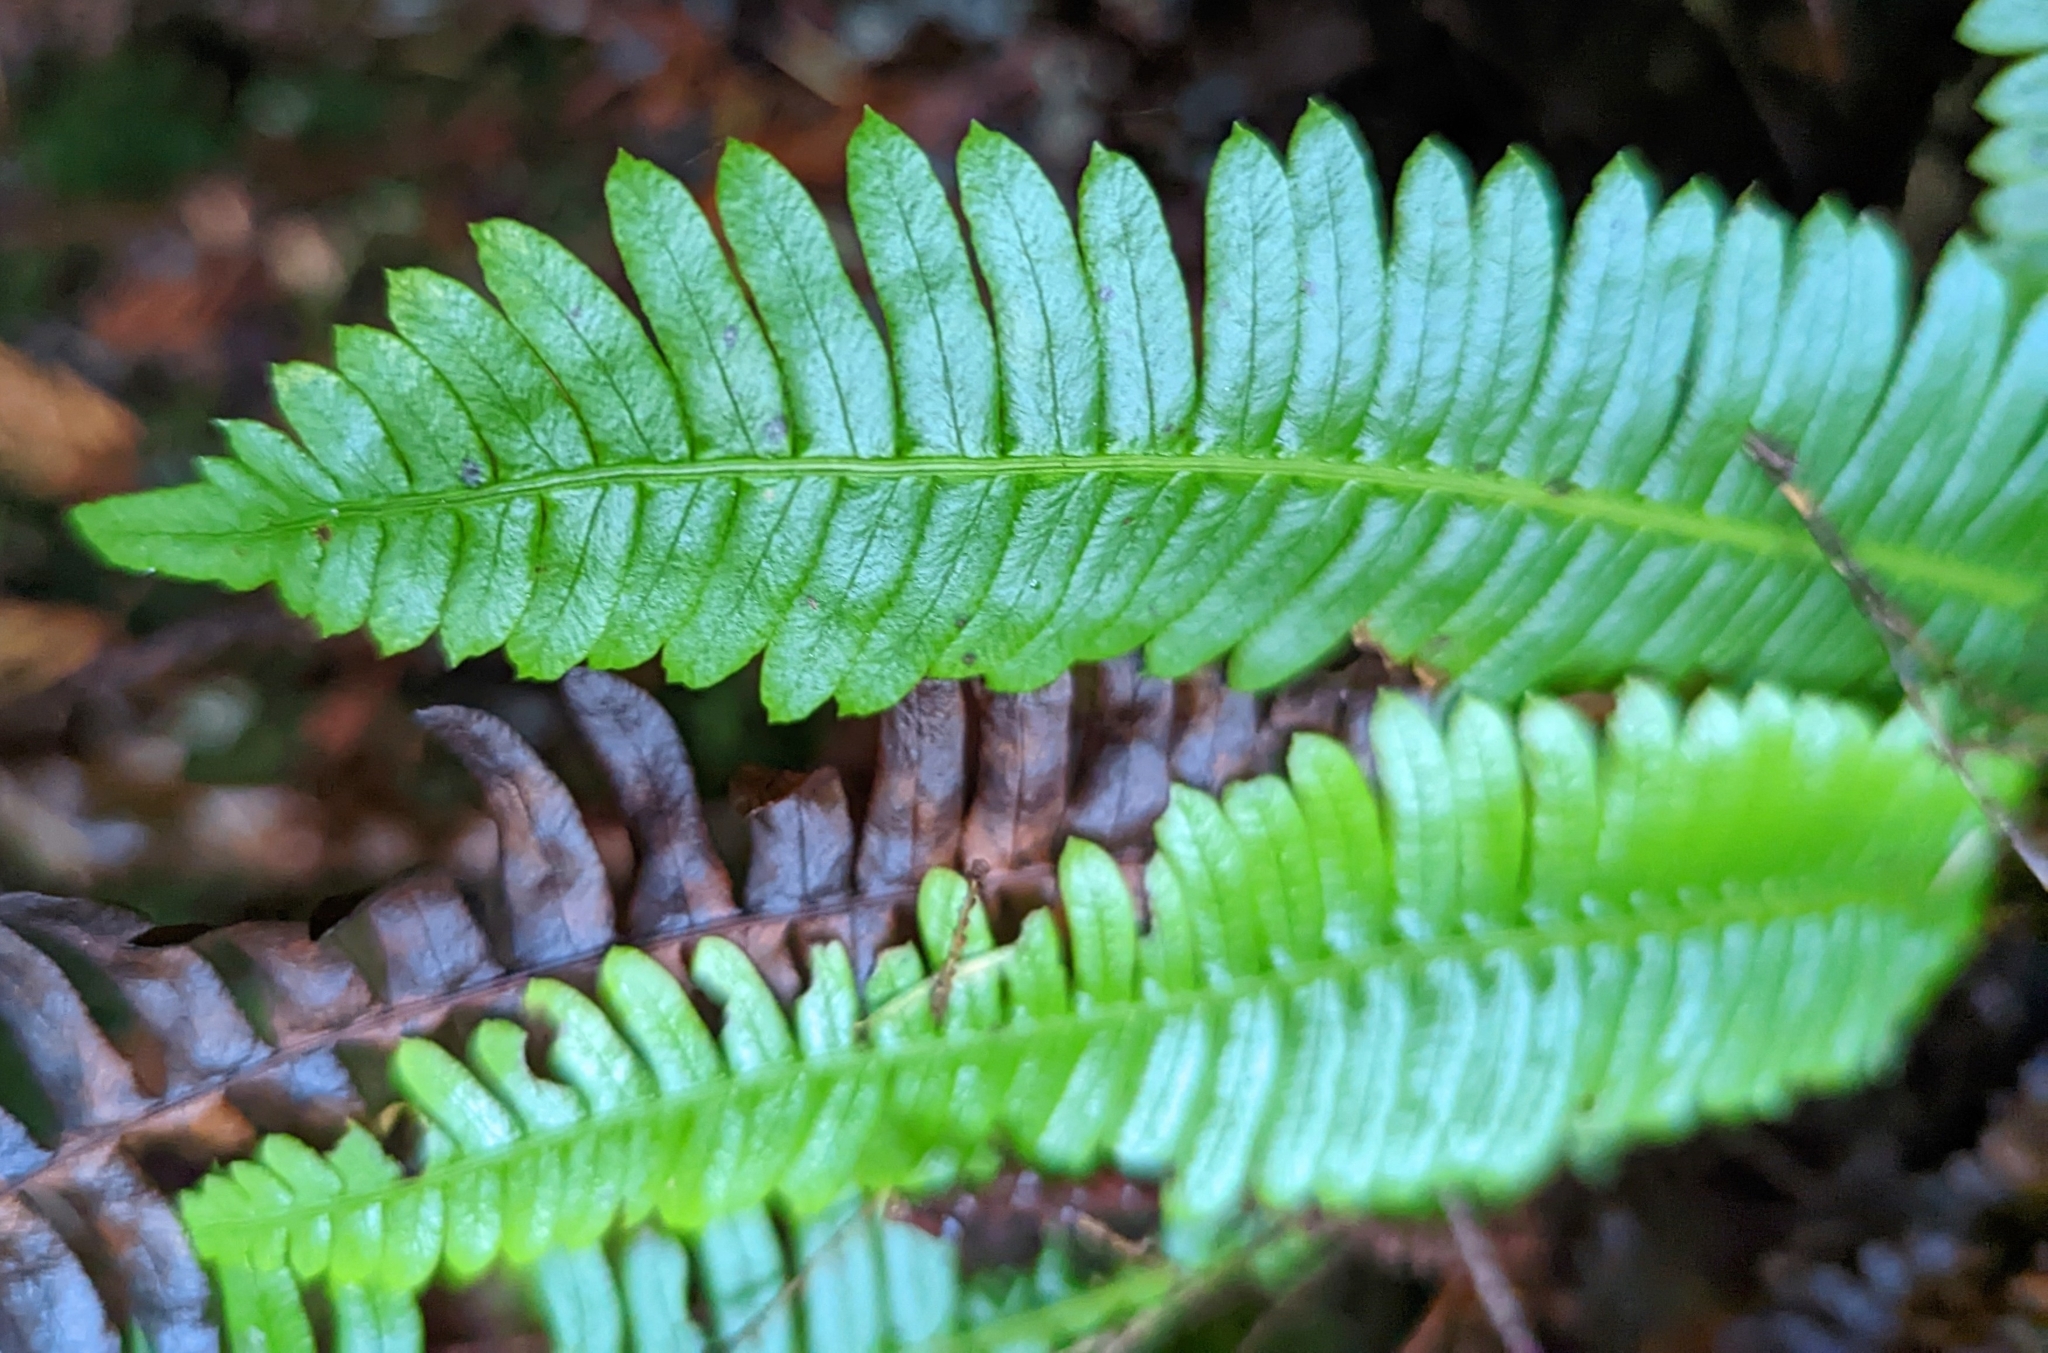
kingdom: Plantae
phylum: Tracheophyta
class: Polypodiopsida
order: Polypodiales
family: Blechnaceae
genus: Struthiopteris
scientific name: Struthiopteris spicant
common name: Deer fern
